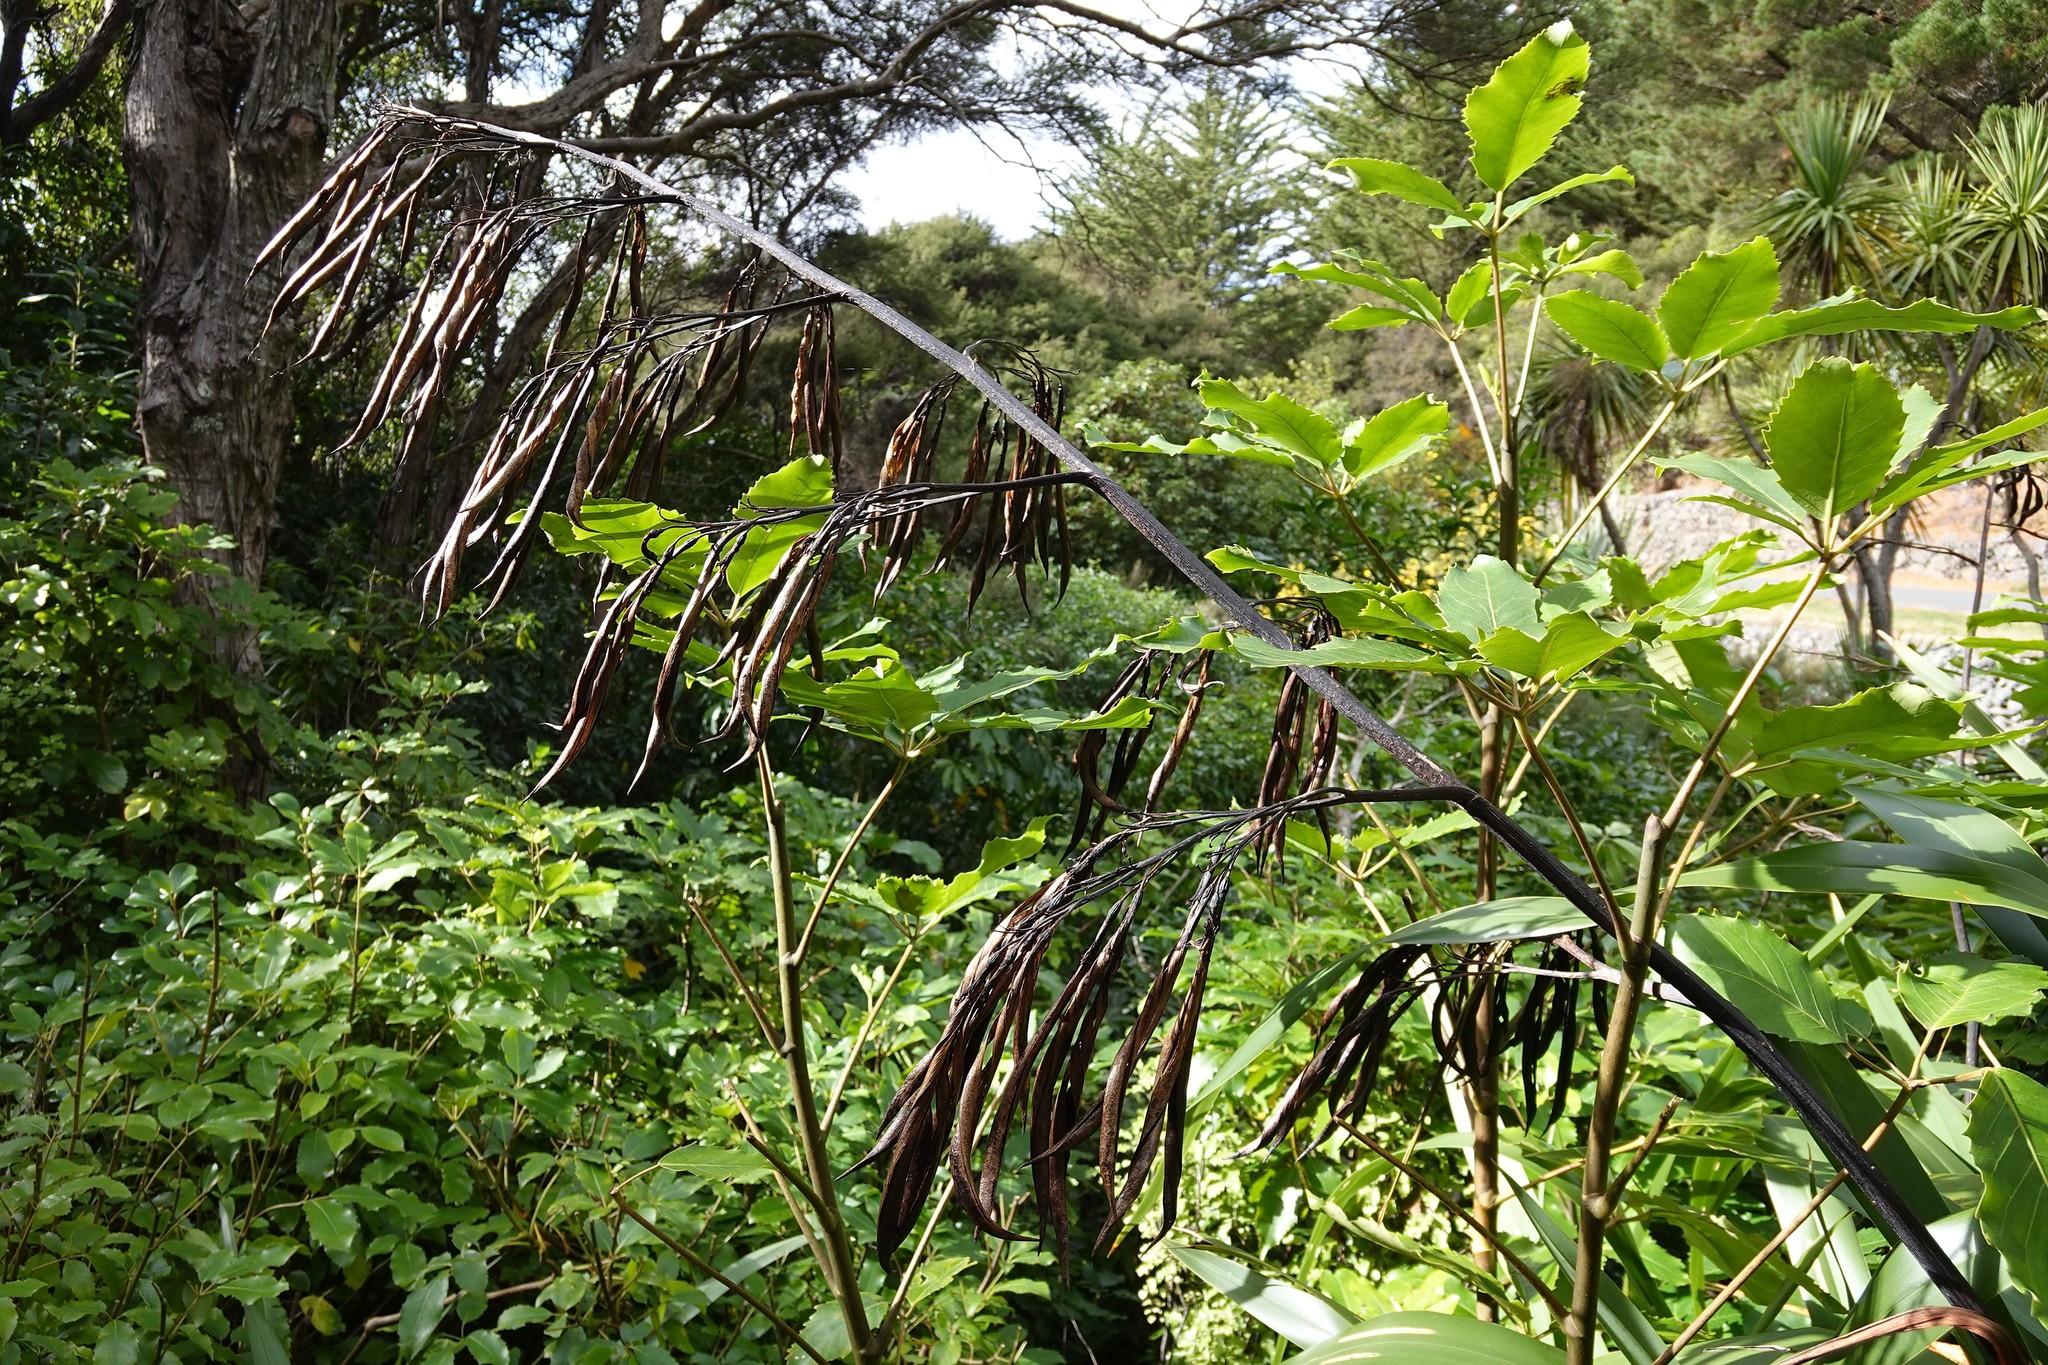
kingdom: Plantae
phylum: Tracheophyta
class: Liliopsida
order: Asparagales
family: Asphodelaceae
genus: Phormium
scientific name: Phormium colensoi
